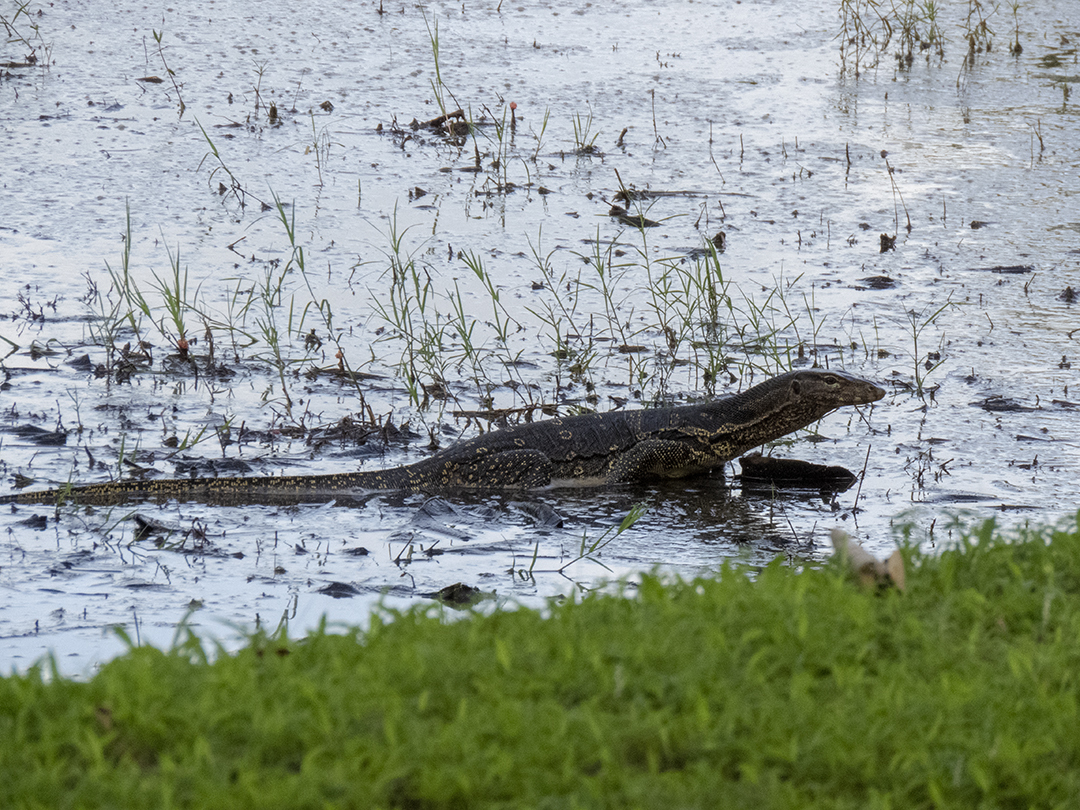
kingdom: Animalia
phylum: Chordata
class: Squamata
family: Varanidae
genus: Varanus
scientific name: Varanus salvator
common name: Common water monitor
